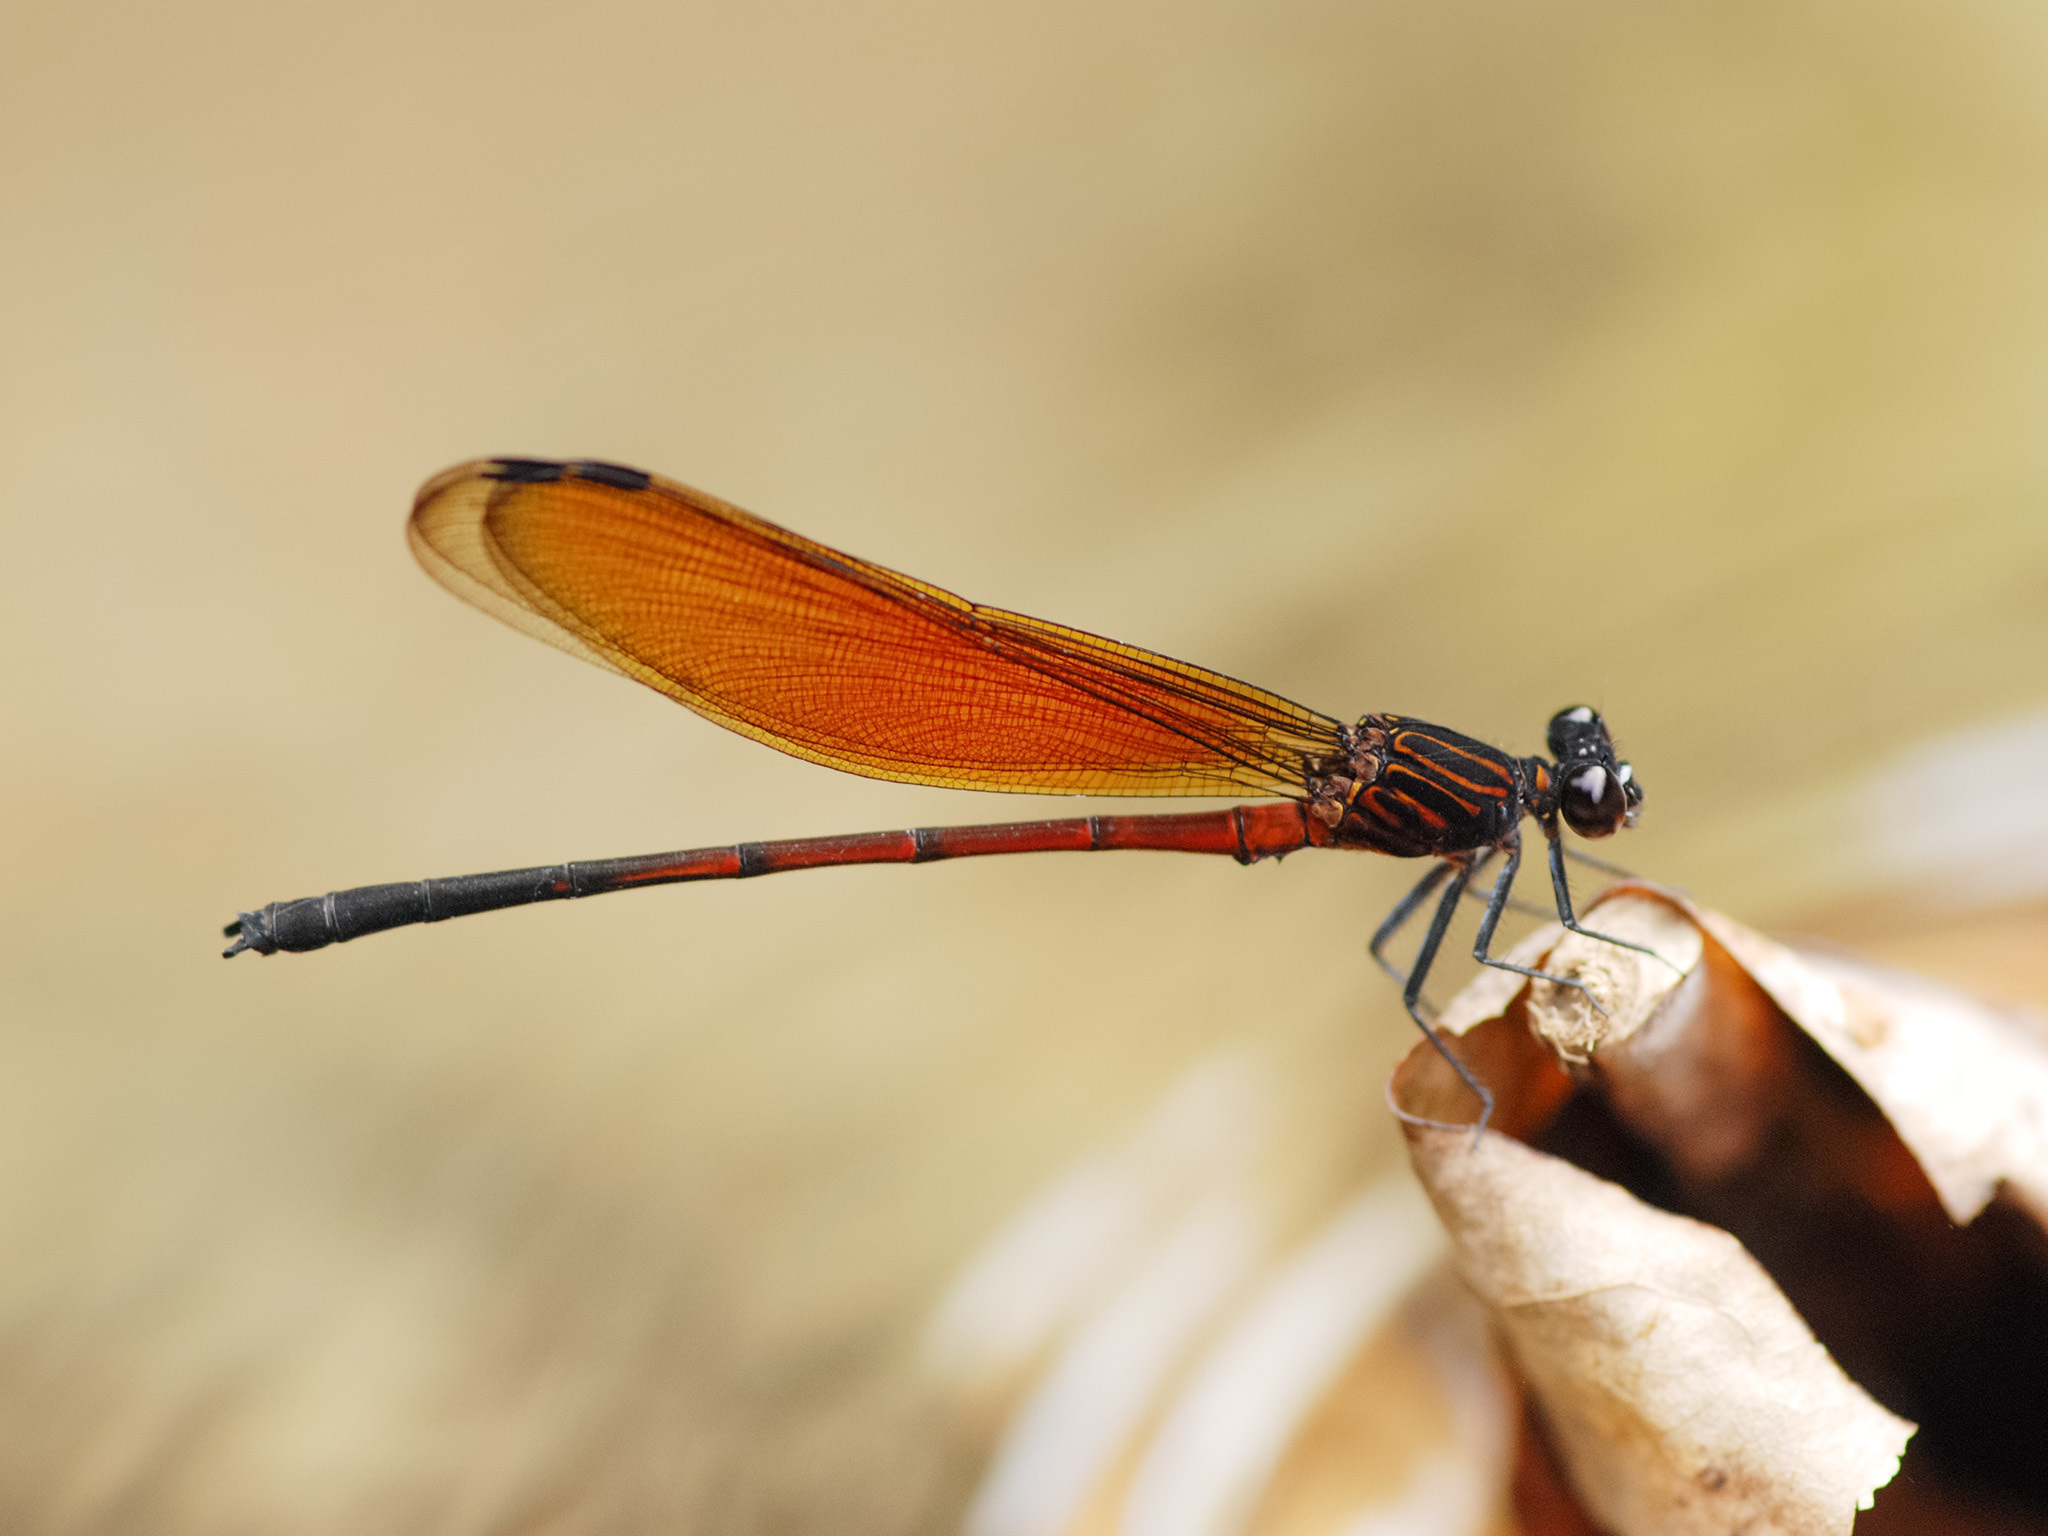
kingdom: Animalia
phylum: Arthropoda
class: Insecta
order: Odonata
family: Euphaeidae
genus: Euphaea
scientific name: Euphaea ochracea
